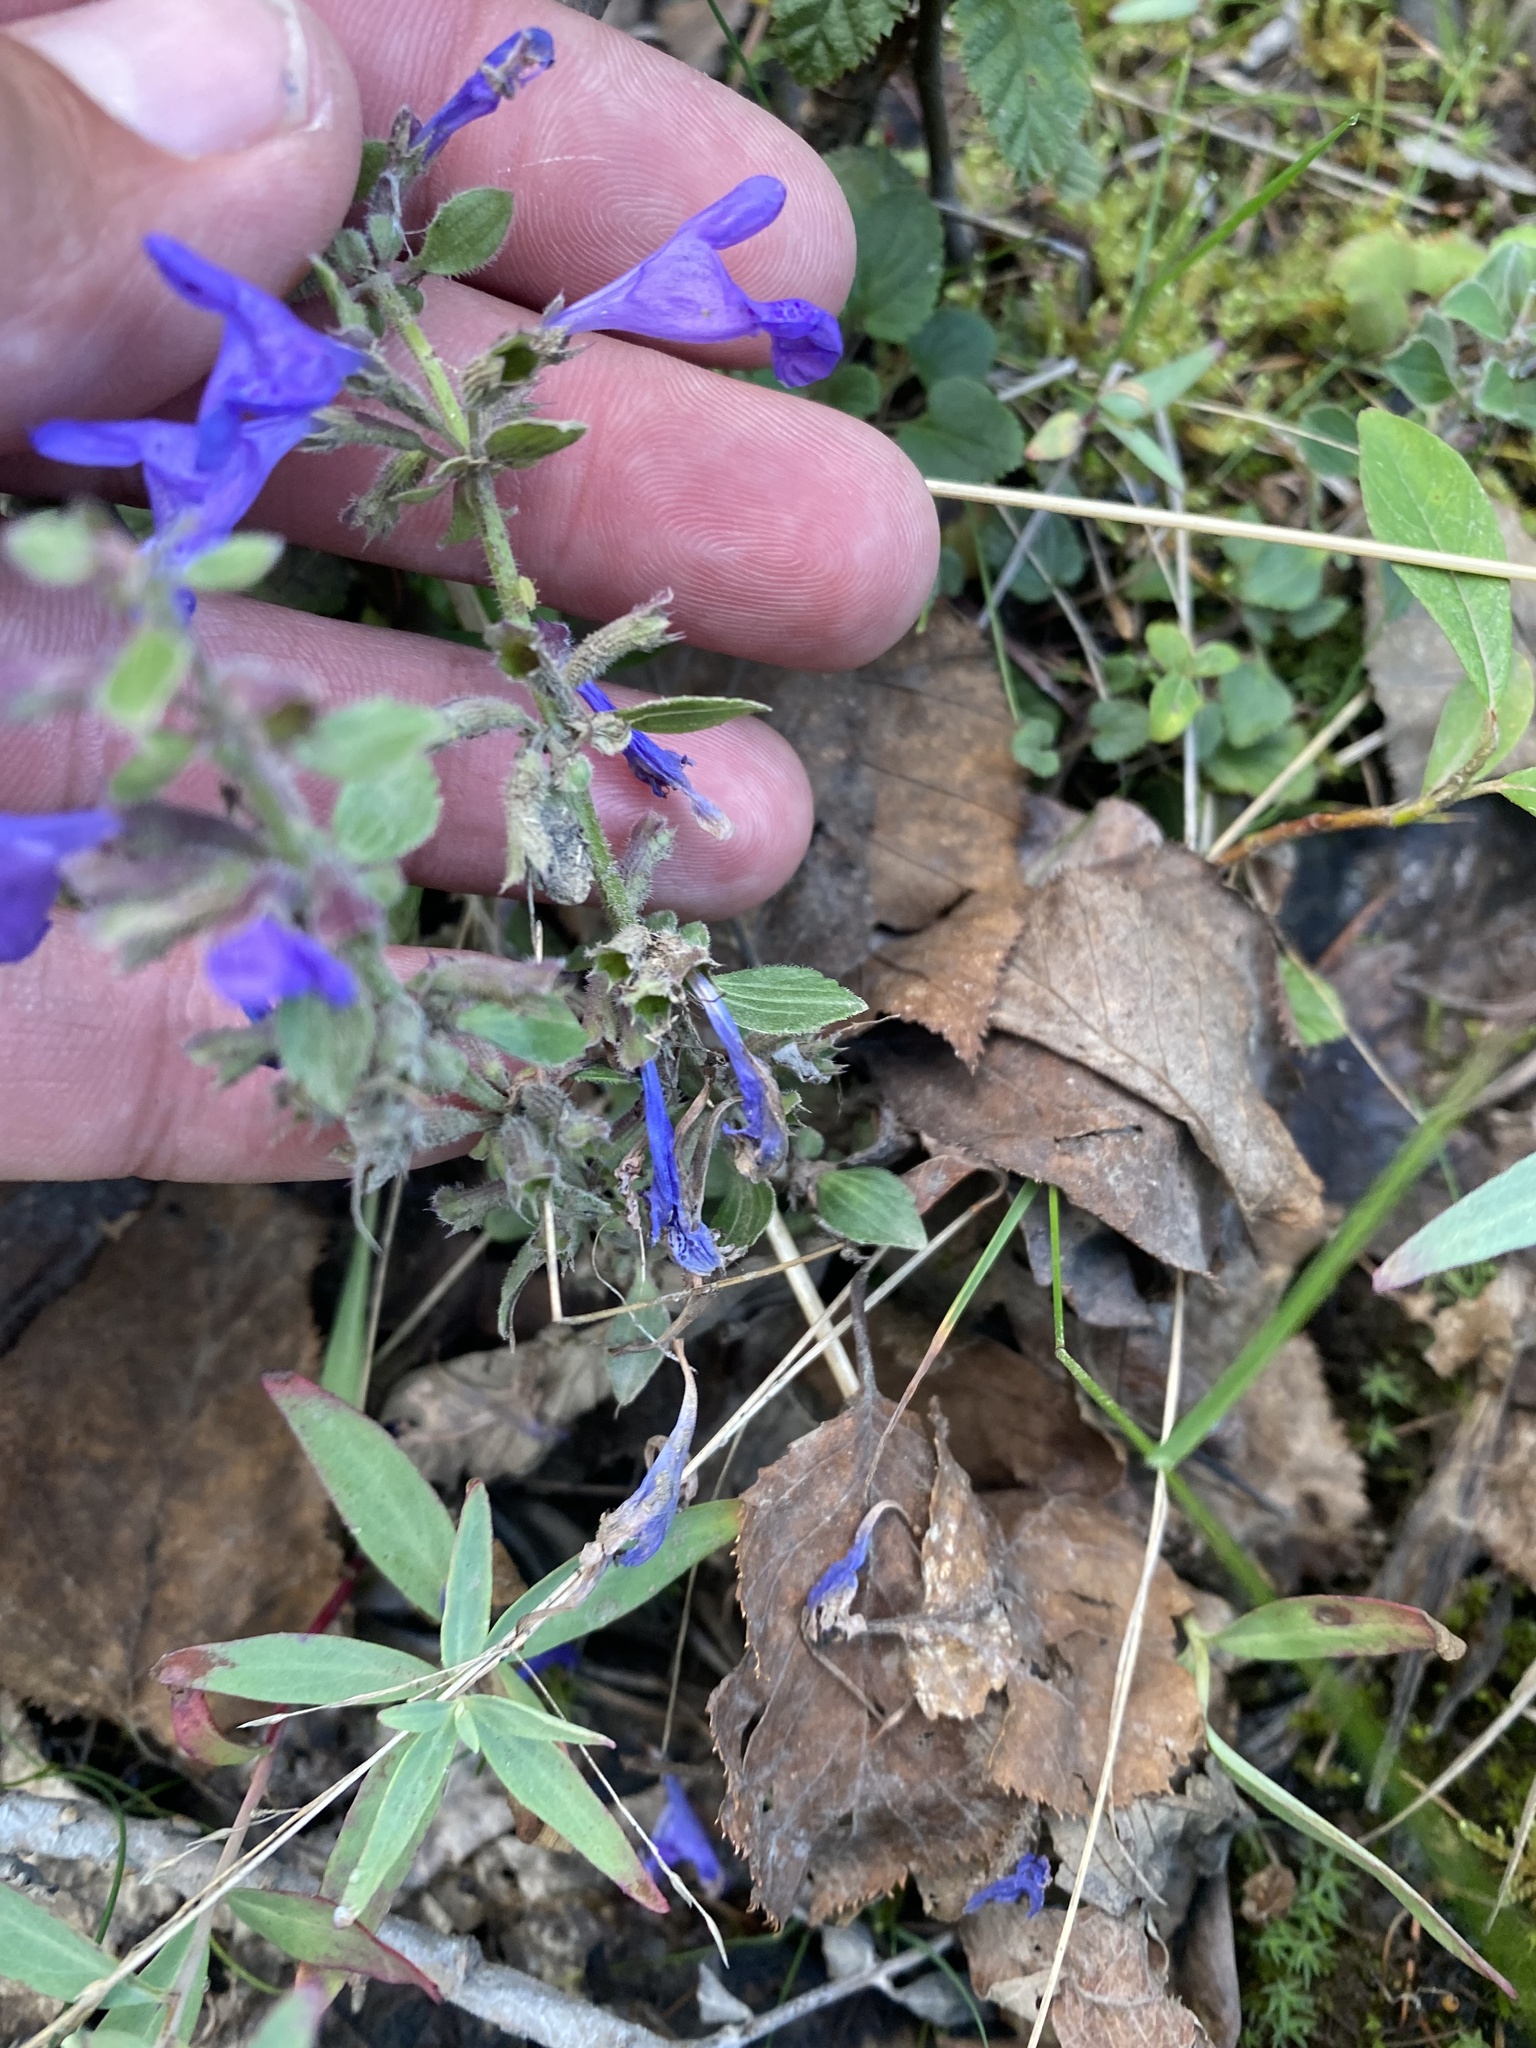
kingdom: Plantae
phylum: Tracheophyta
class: Magnoliopsida
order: Lamiales
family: Lamiaceae
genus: Dracocephalum
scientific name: Dracocephalum nutans
